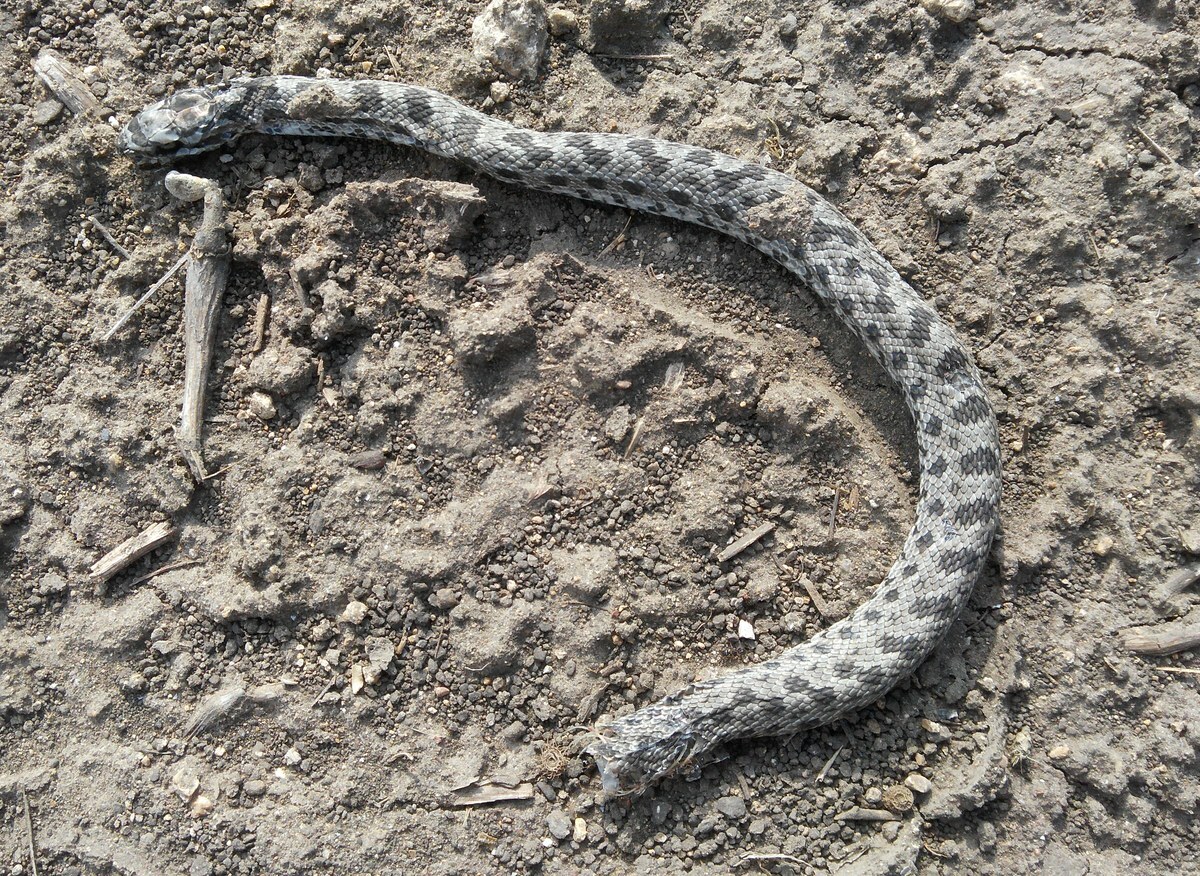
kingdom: Animalia
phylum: Chordata
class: Squamata
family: Colubridae
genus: Elaphe
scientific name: Elaphe sauromates
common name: Eastern four-lined ratsnake
